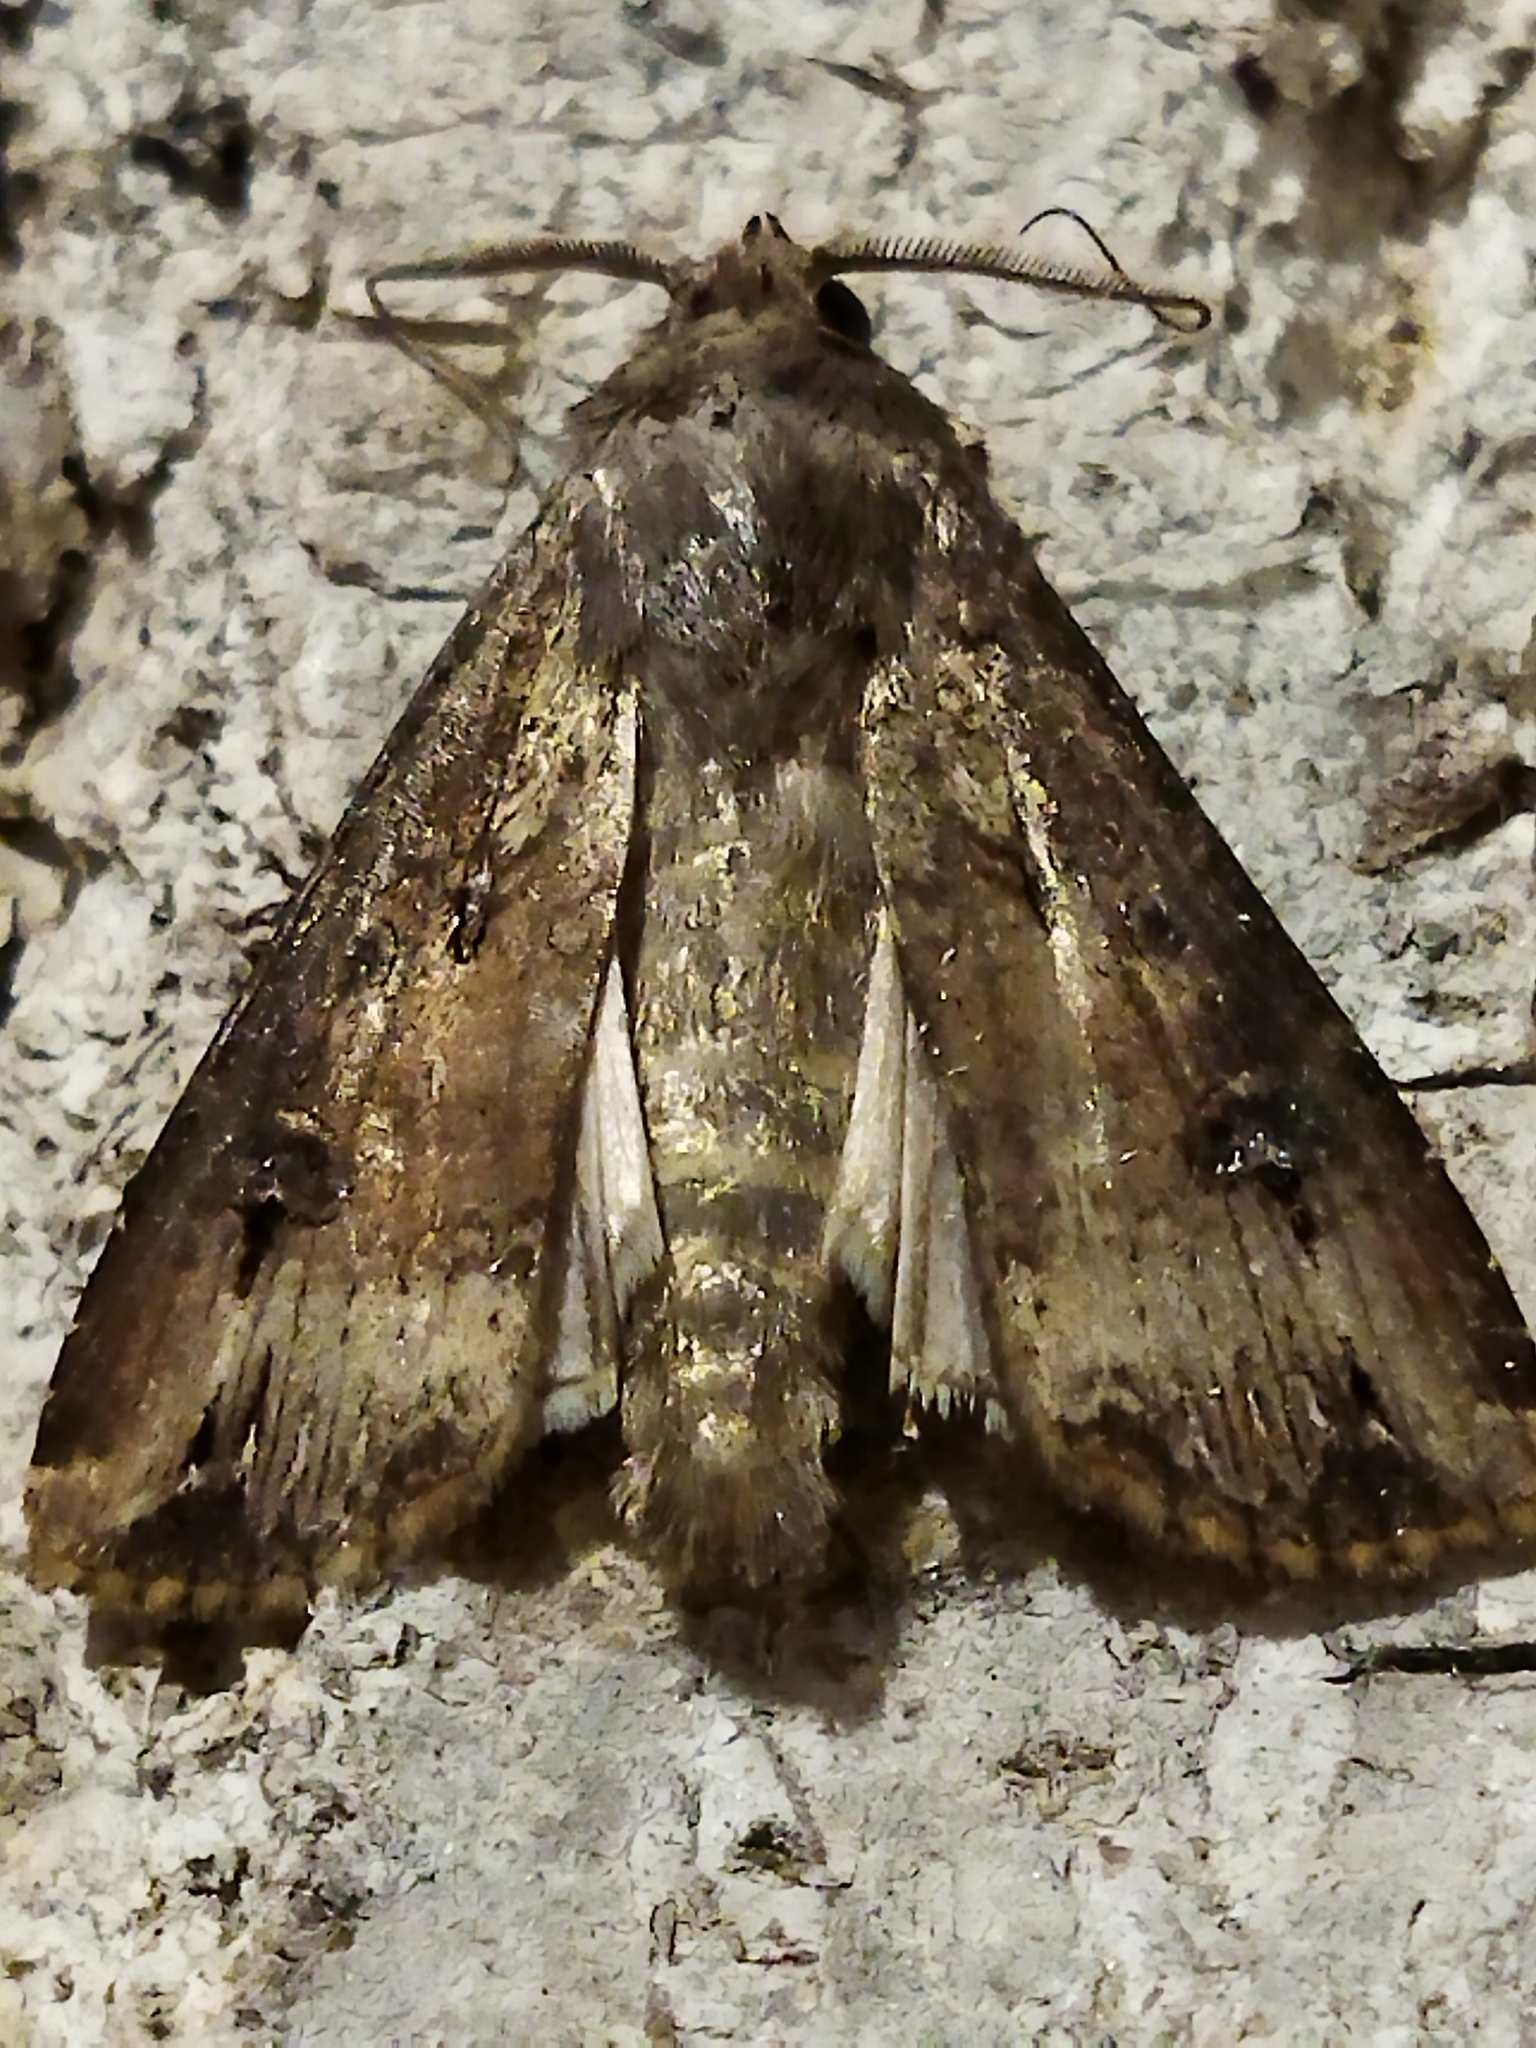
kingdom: Animalia
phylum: Arthropoda
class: Insecta
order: Lepidoptera
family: Noctuidae
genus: Agrotis
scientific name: Agrotis ipsilon
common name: Dark sword-grass
